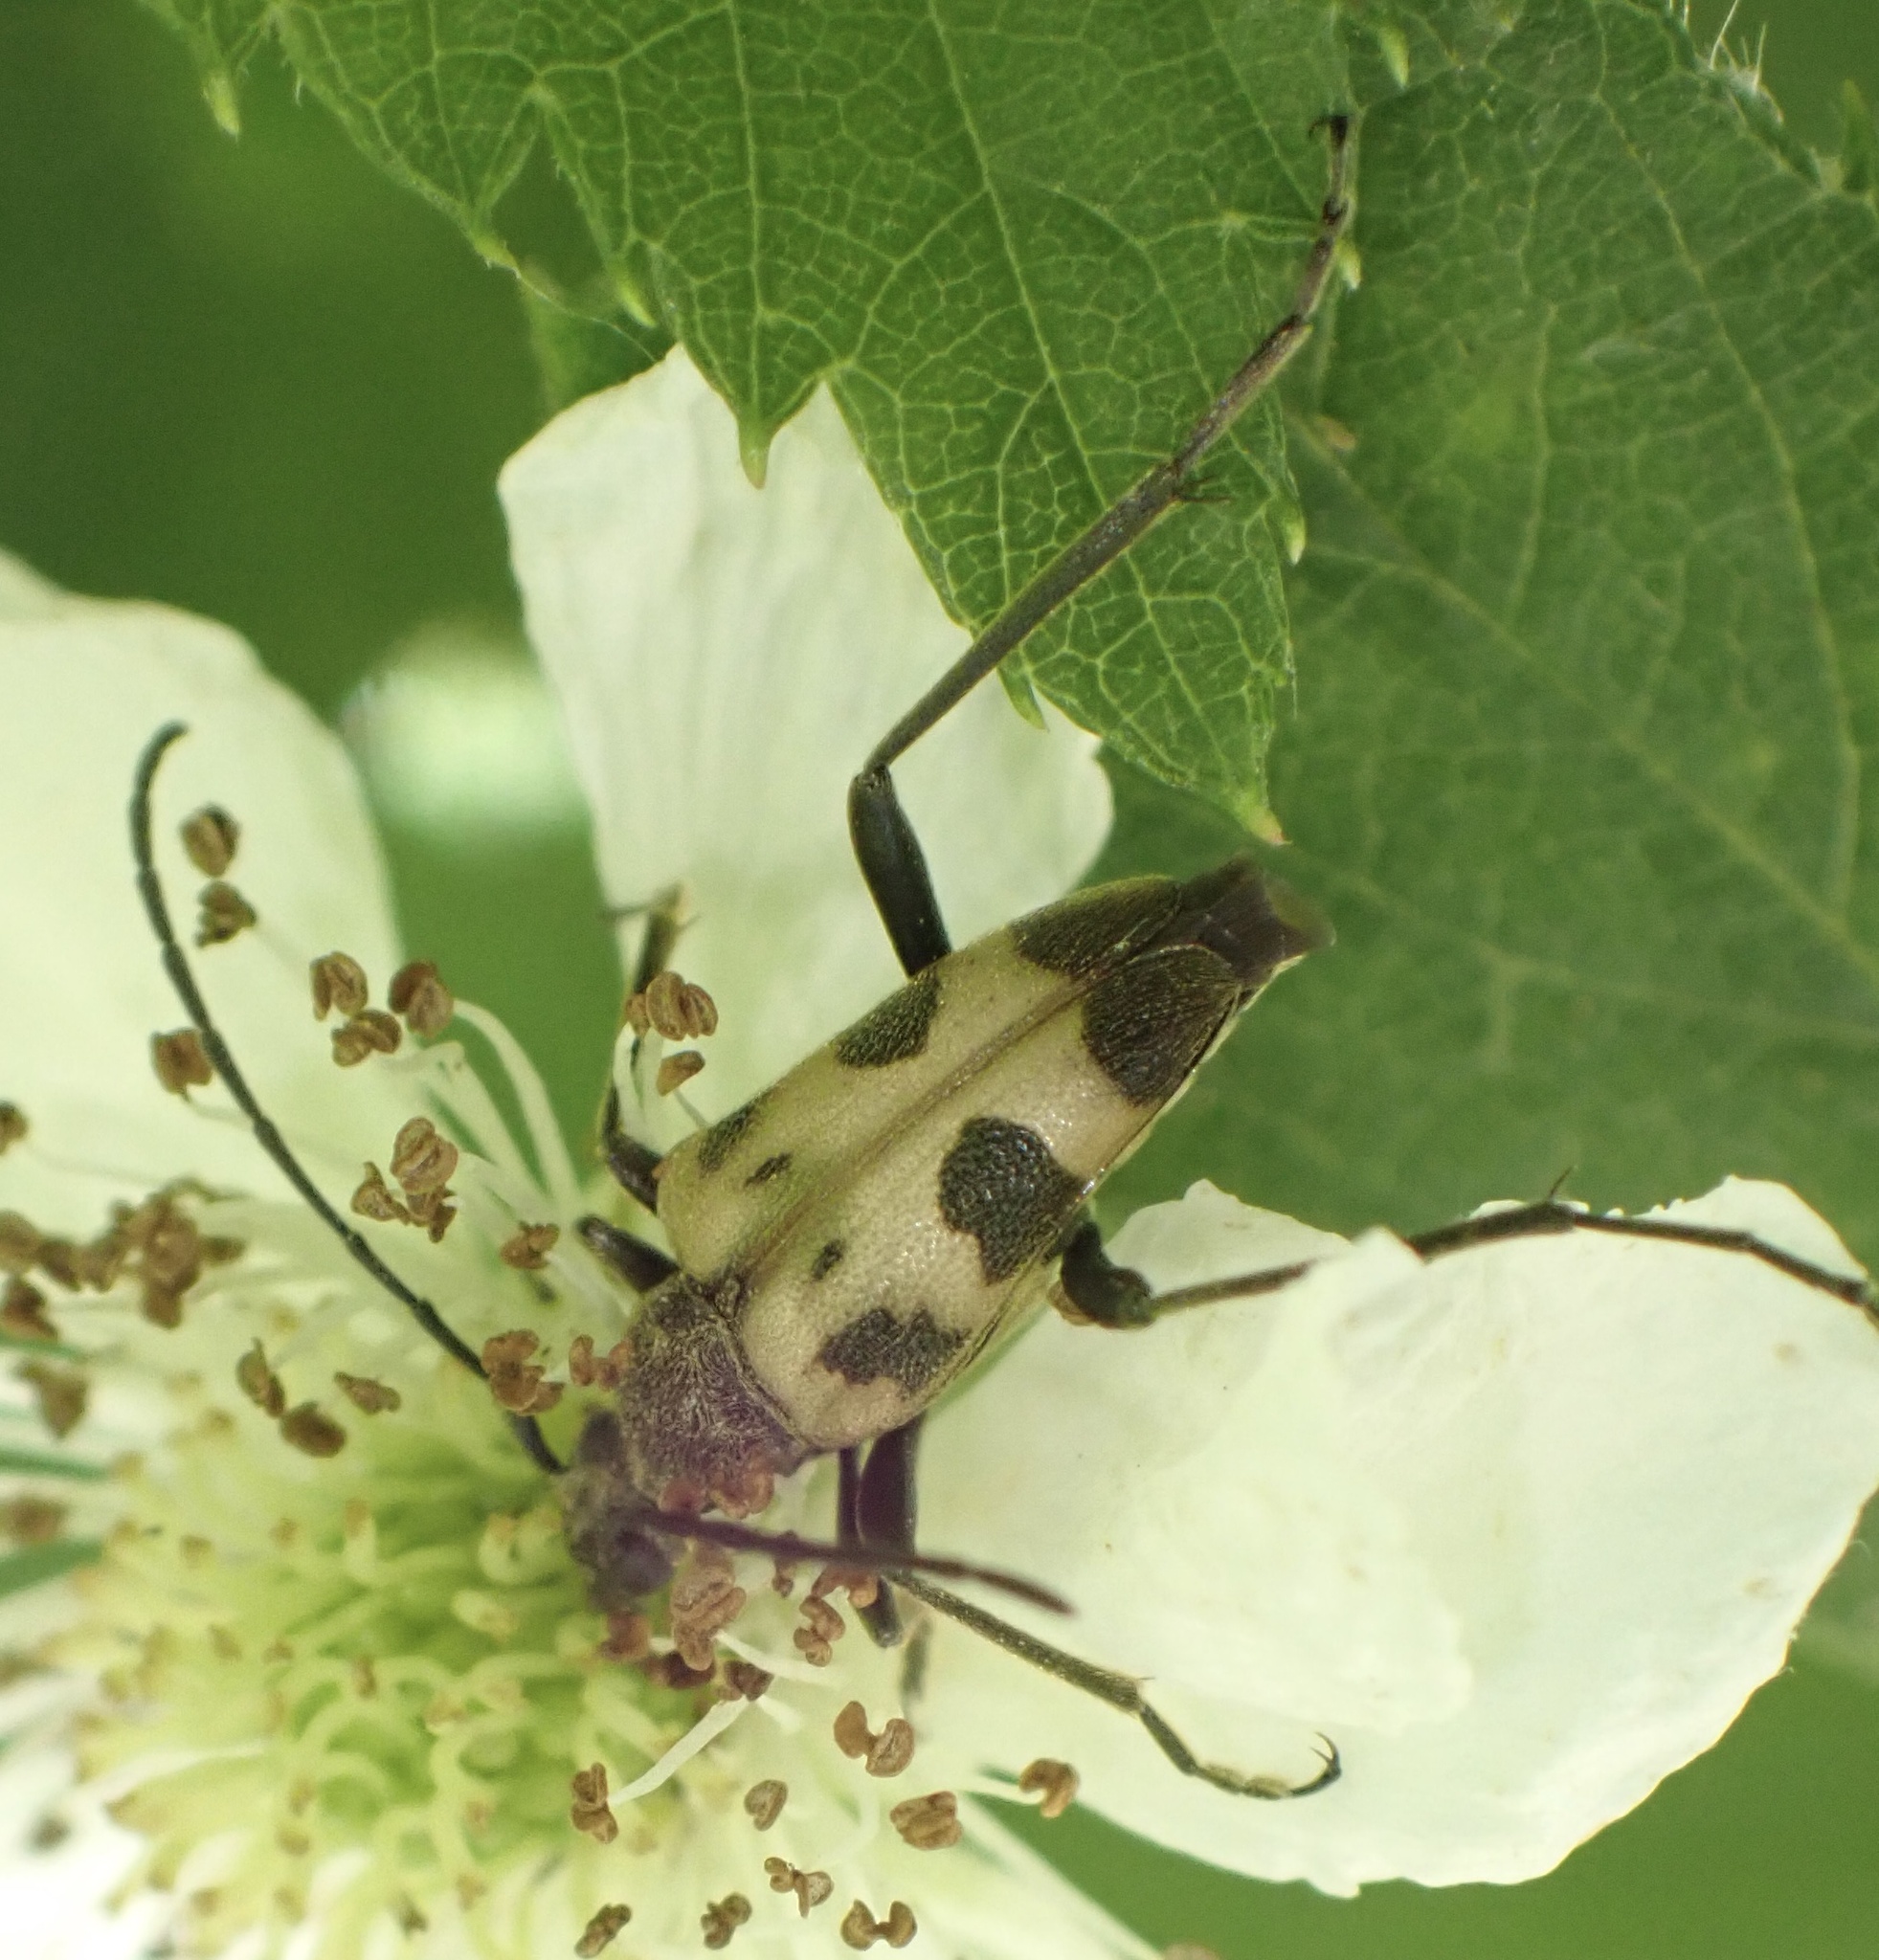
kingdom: Animalia
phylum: Arthropoda
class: Insecta
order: Coleoptera
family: Cerambycidae
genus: Pachytodes
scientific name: Pachytodes cerambyciformis
